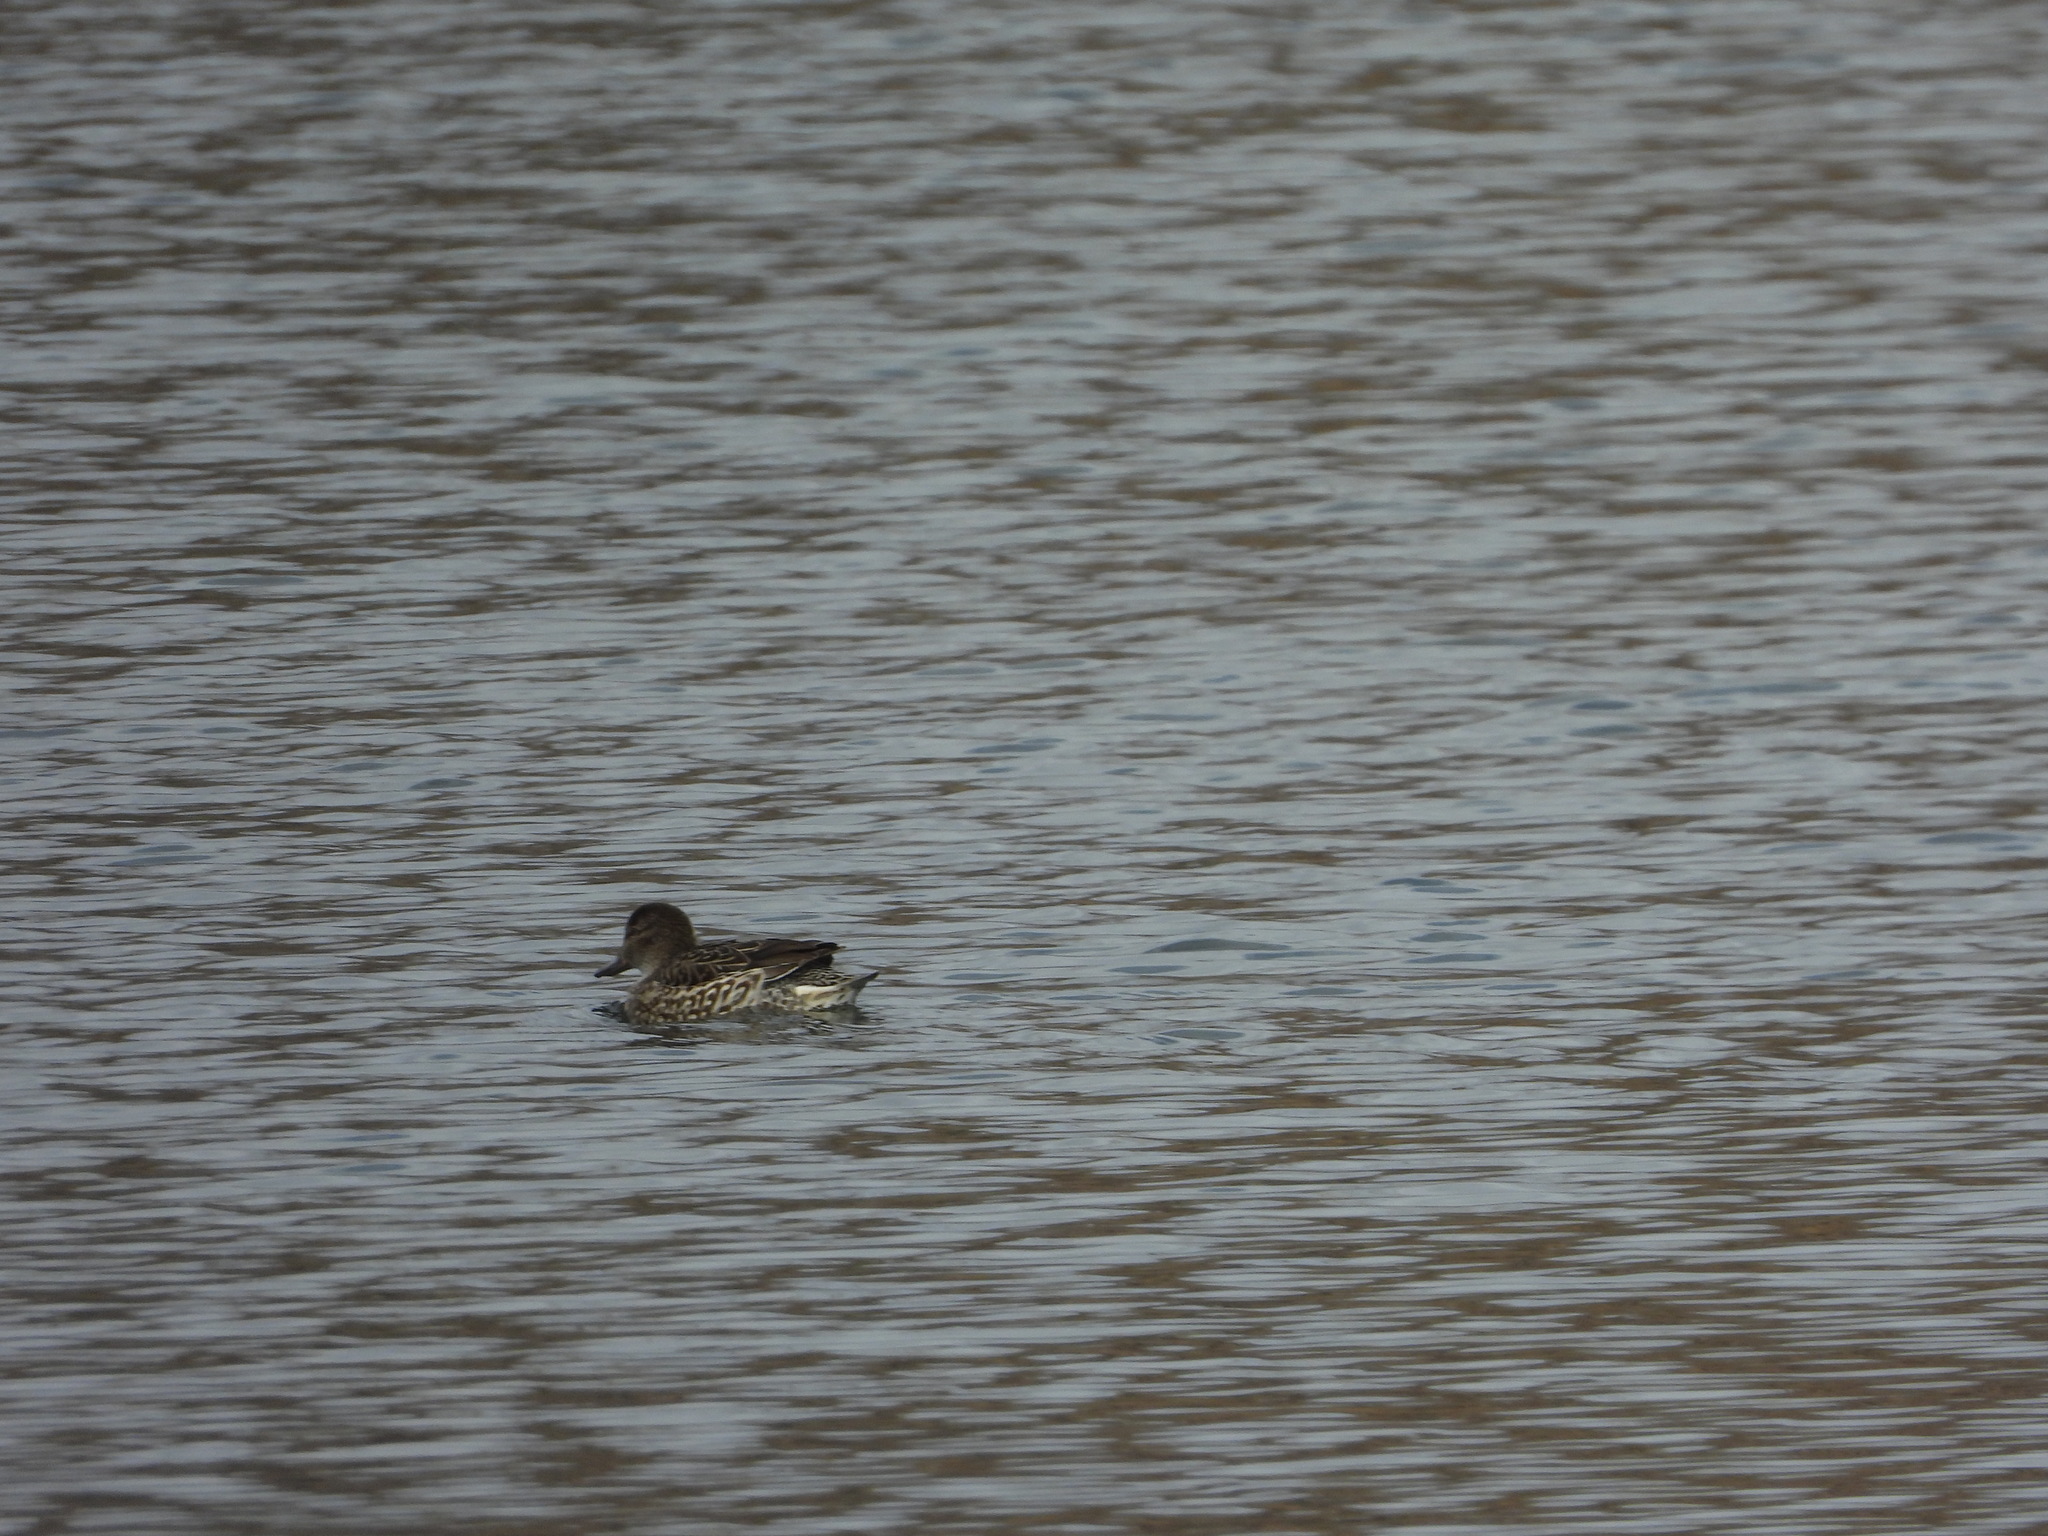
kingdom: Animalia
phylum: Chordata
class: Aves
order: Anseriformes
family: Anatidae
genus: Anas
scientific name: Anas crecca
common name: Eurasian teal
